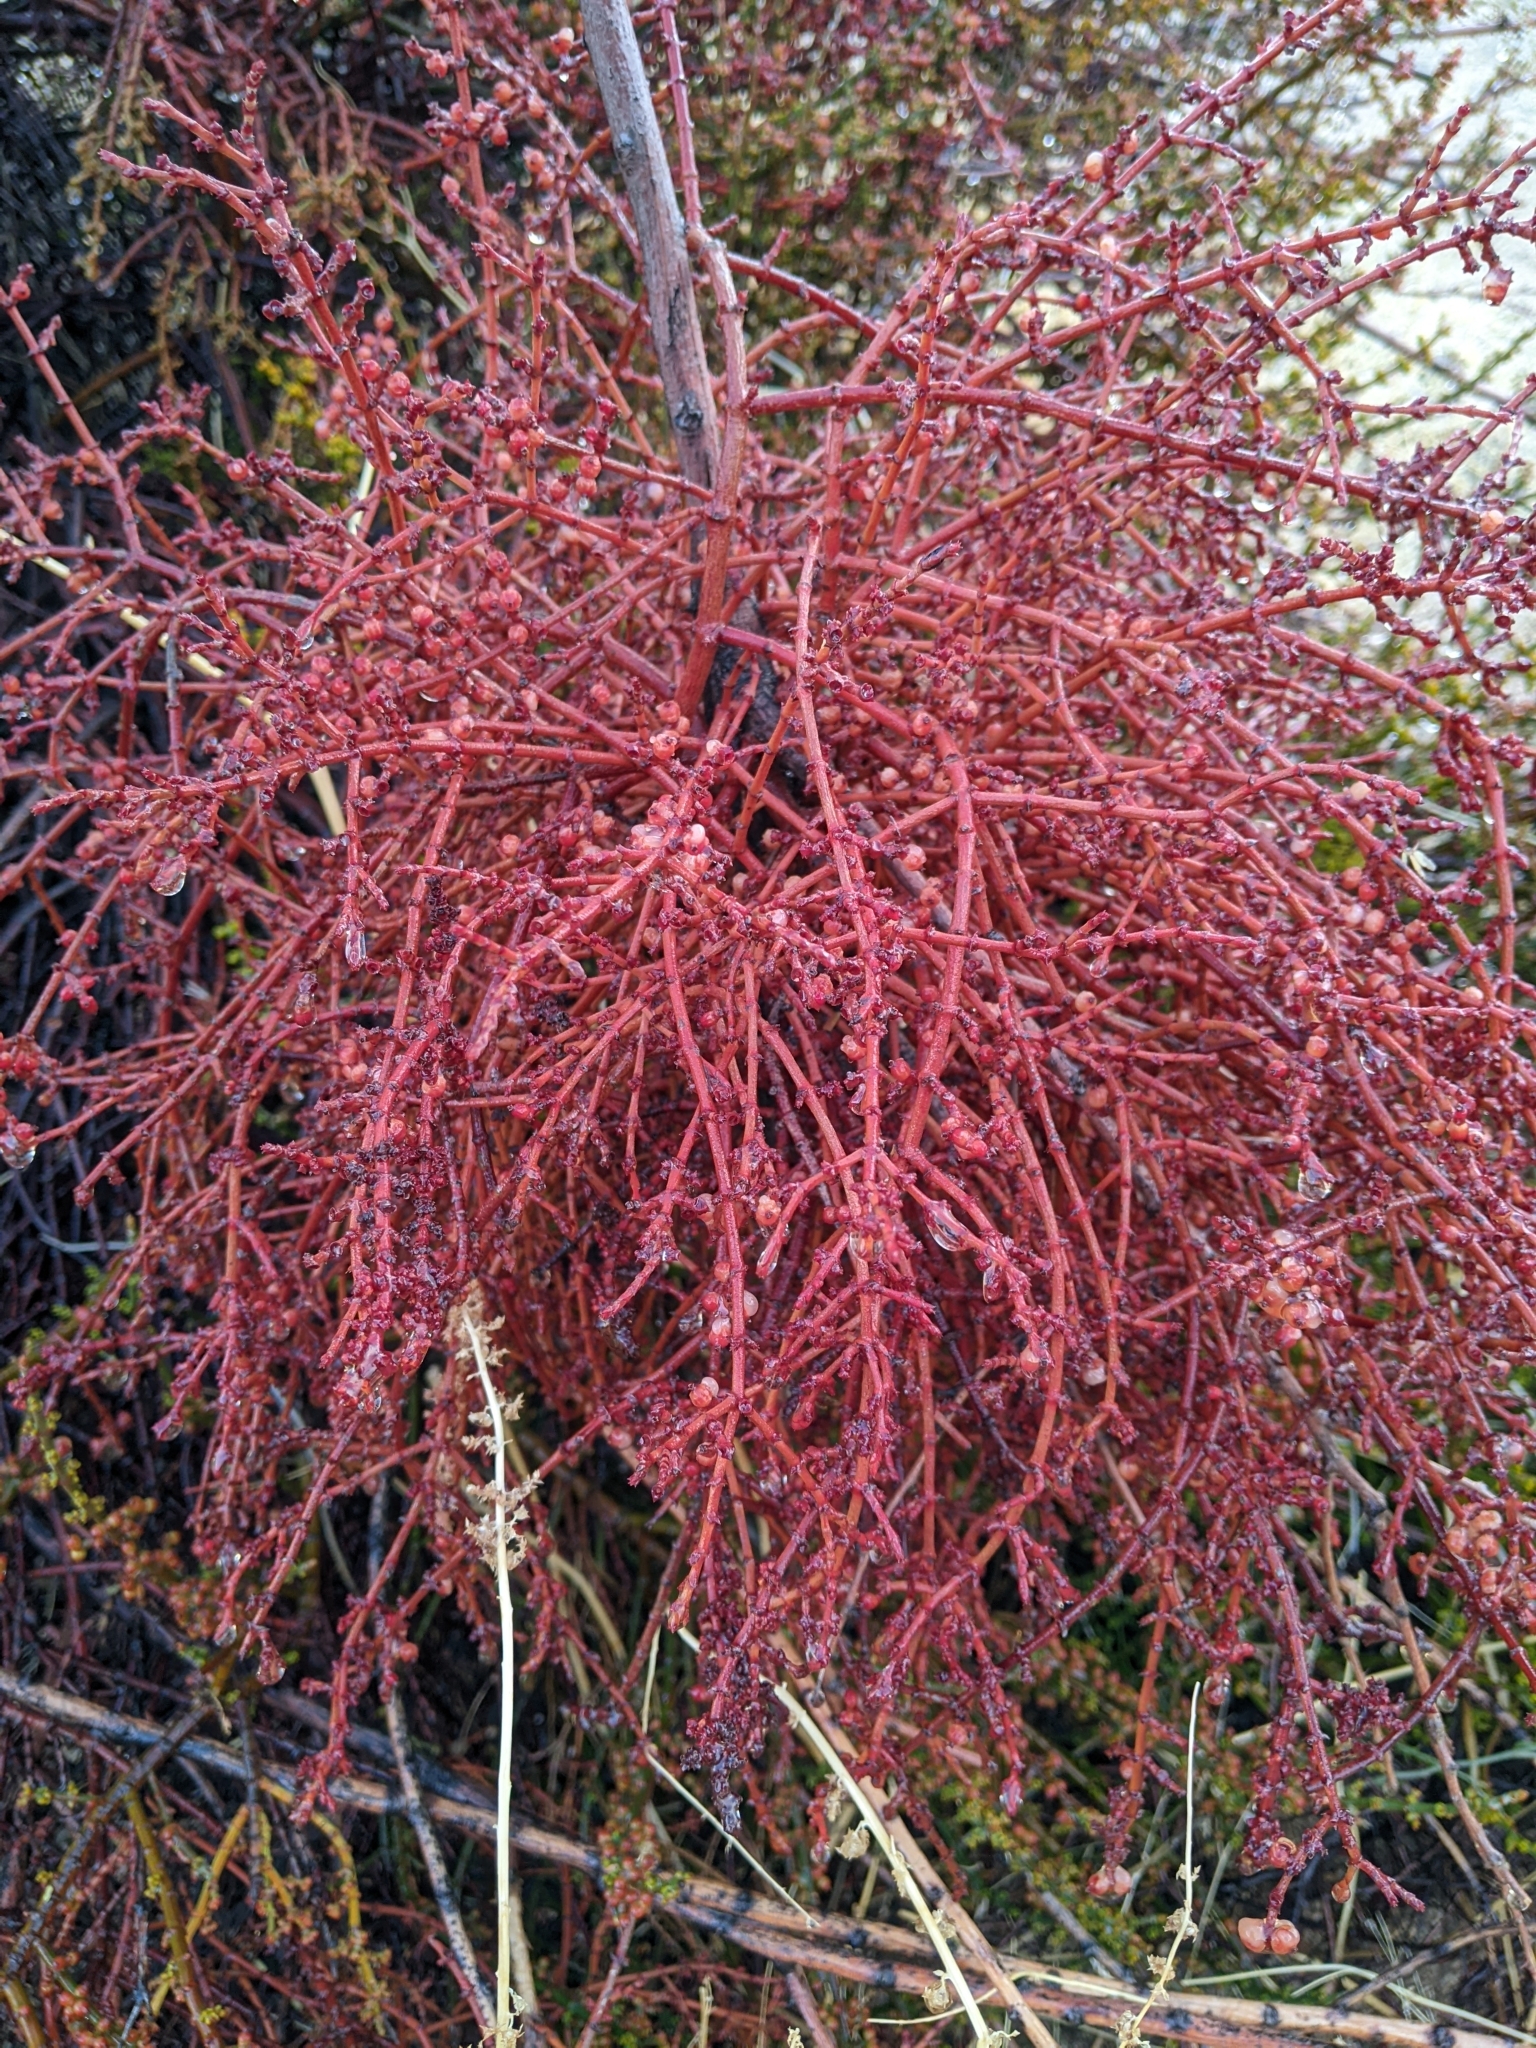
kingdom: Plantae
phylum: Tracheophyta
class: Magnoliopsida
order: Santalales
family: Viscaceae
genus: Phoradendron
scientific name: Phoradendron californicum
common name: Acacia mistletoe
